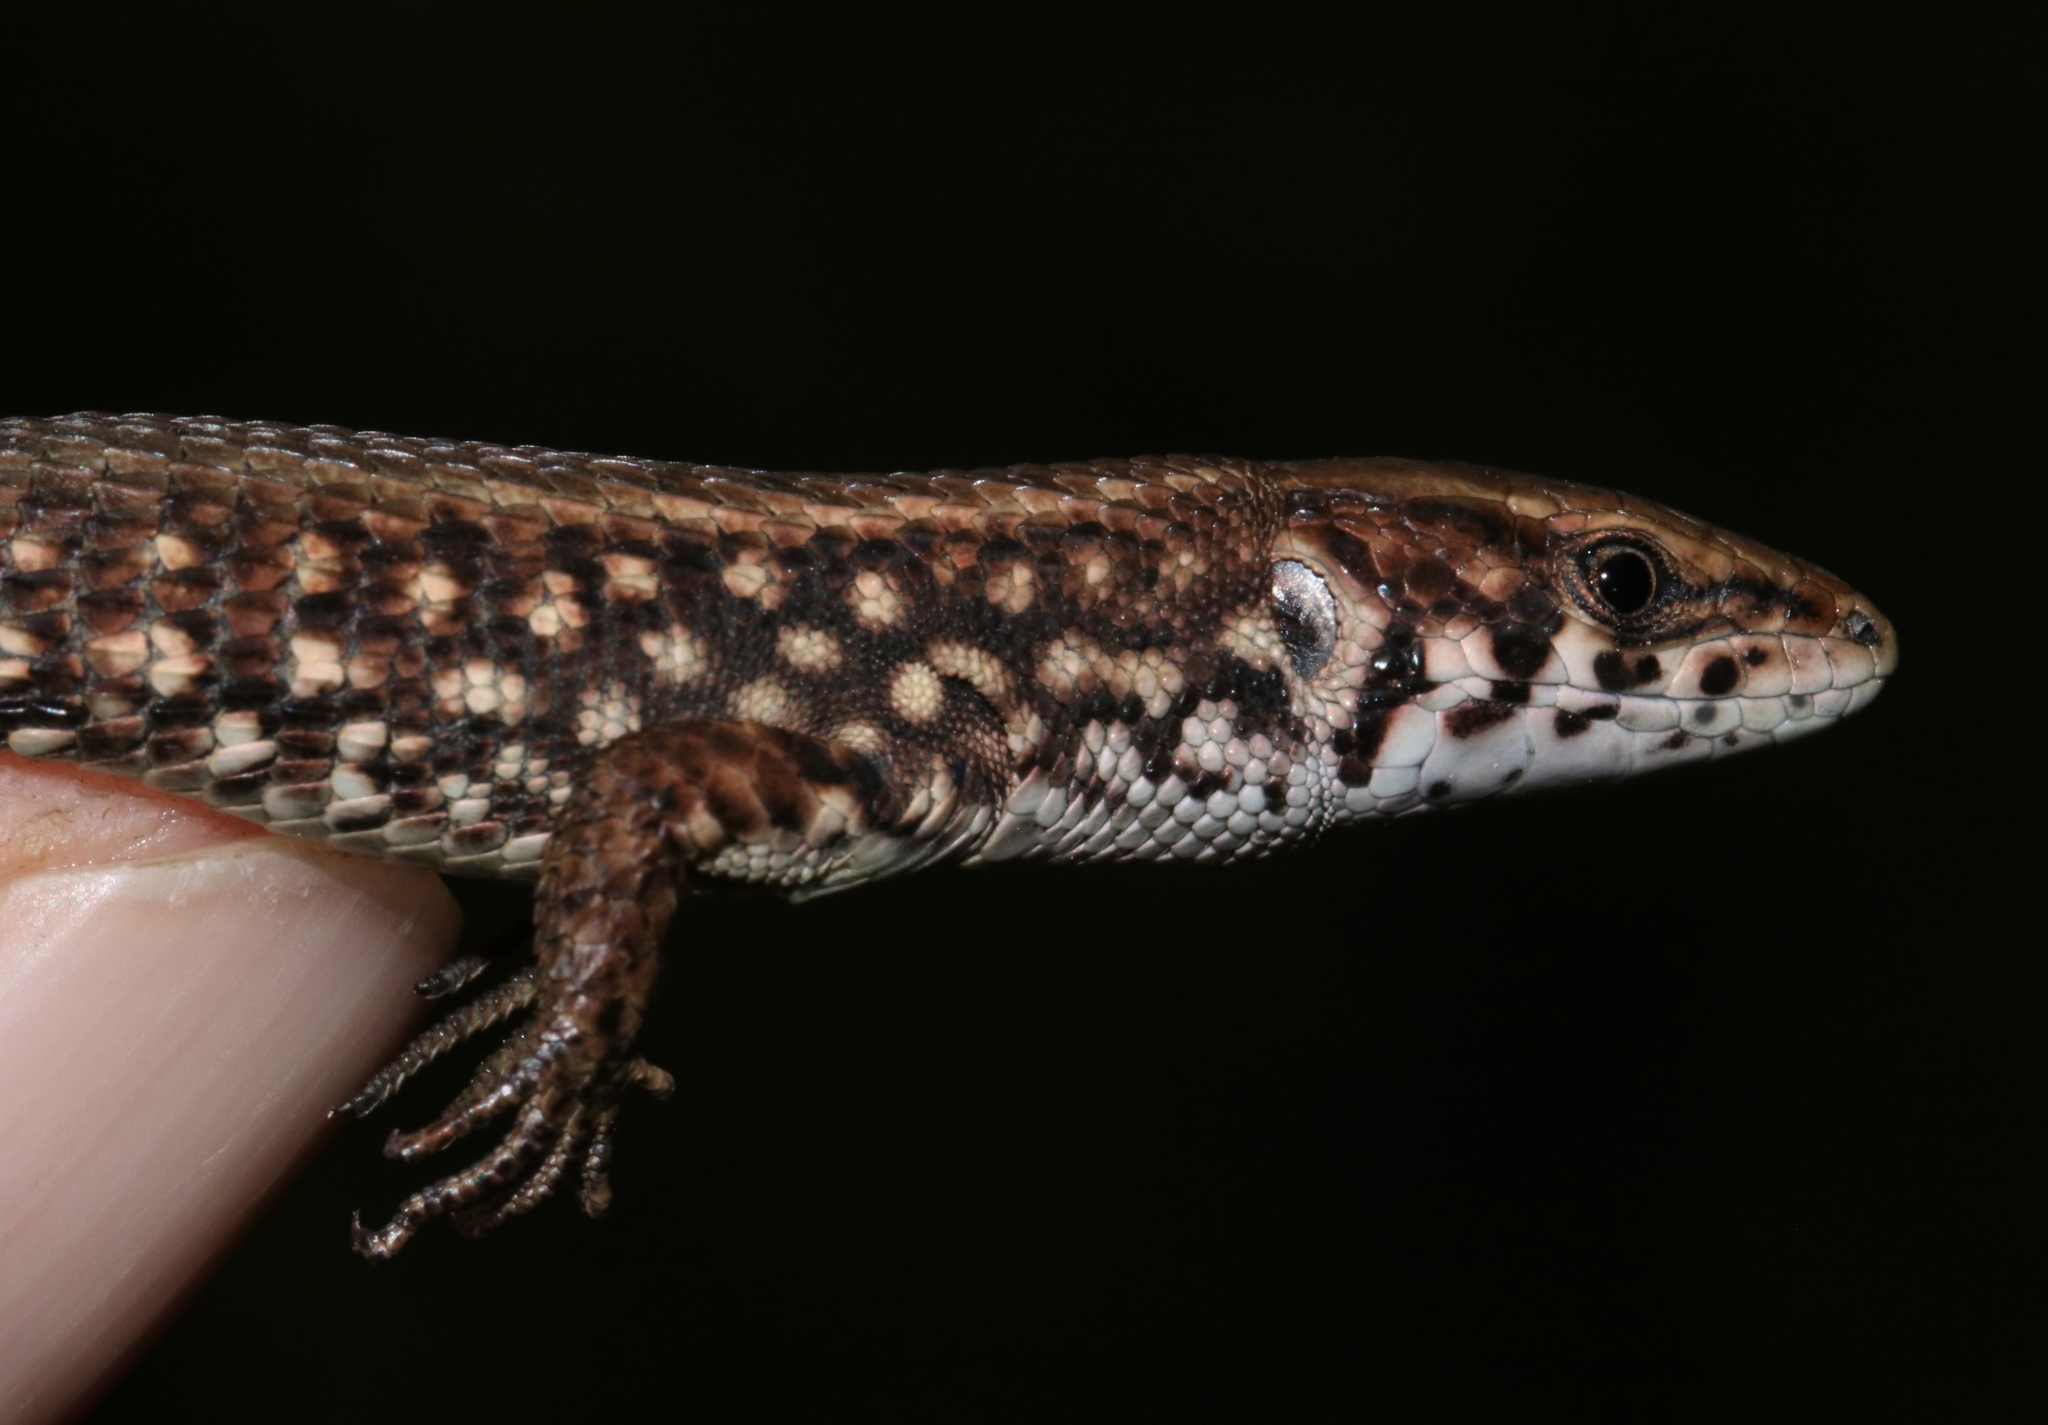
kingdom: Animalia
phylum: Chordata
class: Squamata
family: Lacertidae
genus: Algyroides
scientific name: Algyroides moreoticus
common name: Greek algyroides
